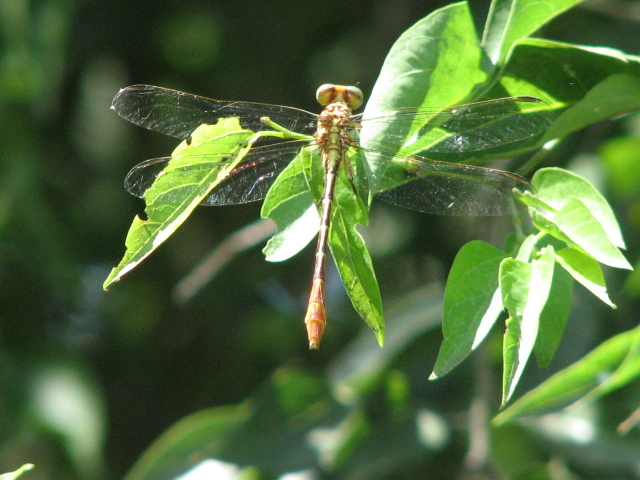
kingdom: Animalia
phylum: Arthropoda
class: Insecta
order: Odonata
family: Gomphidae
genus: Stylurus
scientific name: Stylurus plagiatus
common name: Russet-tipped clubtail
